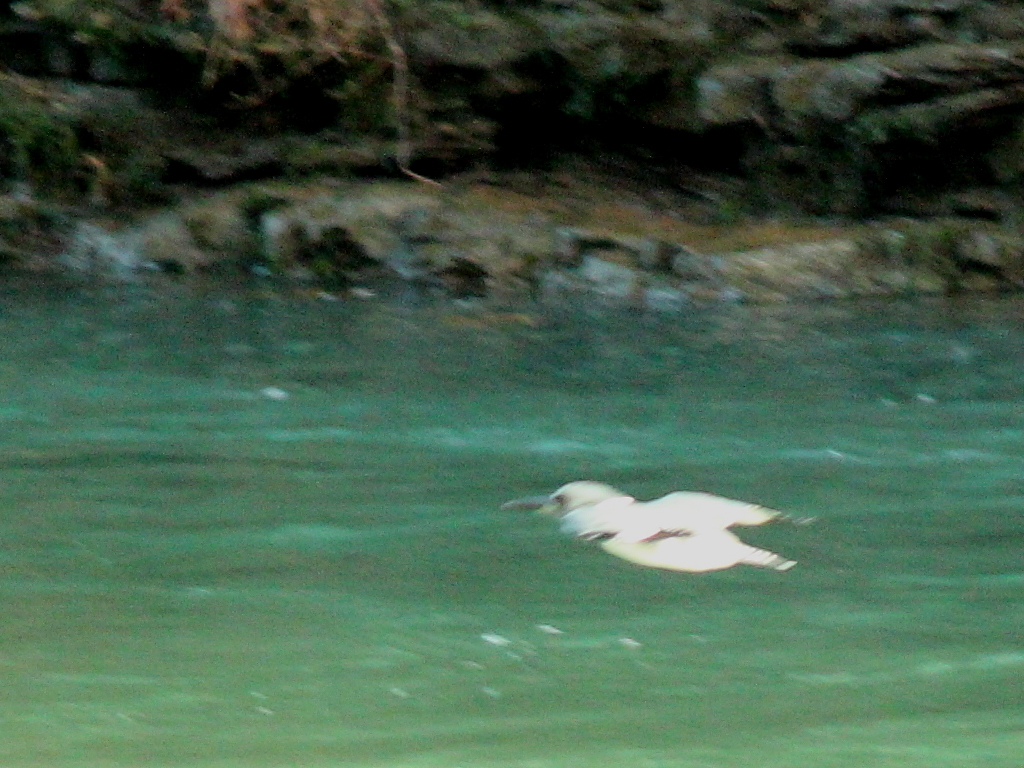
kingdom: Animalia
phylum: Chordata
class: Aves
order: Coraciiformes
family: Alcedinidae
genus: Megaceryle
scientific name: Megaceryle alcyon
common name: Belted kingfisher
